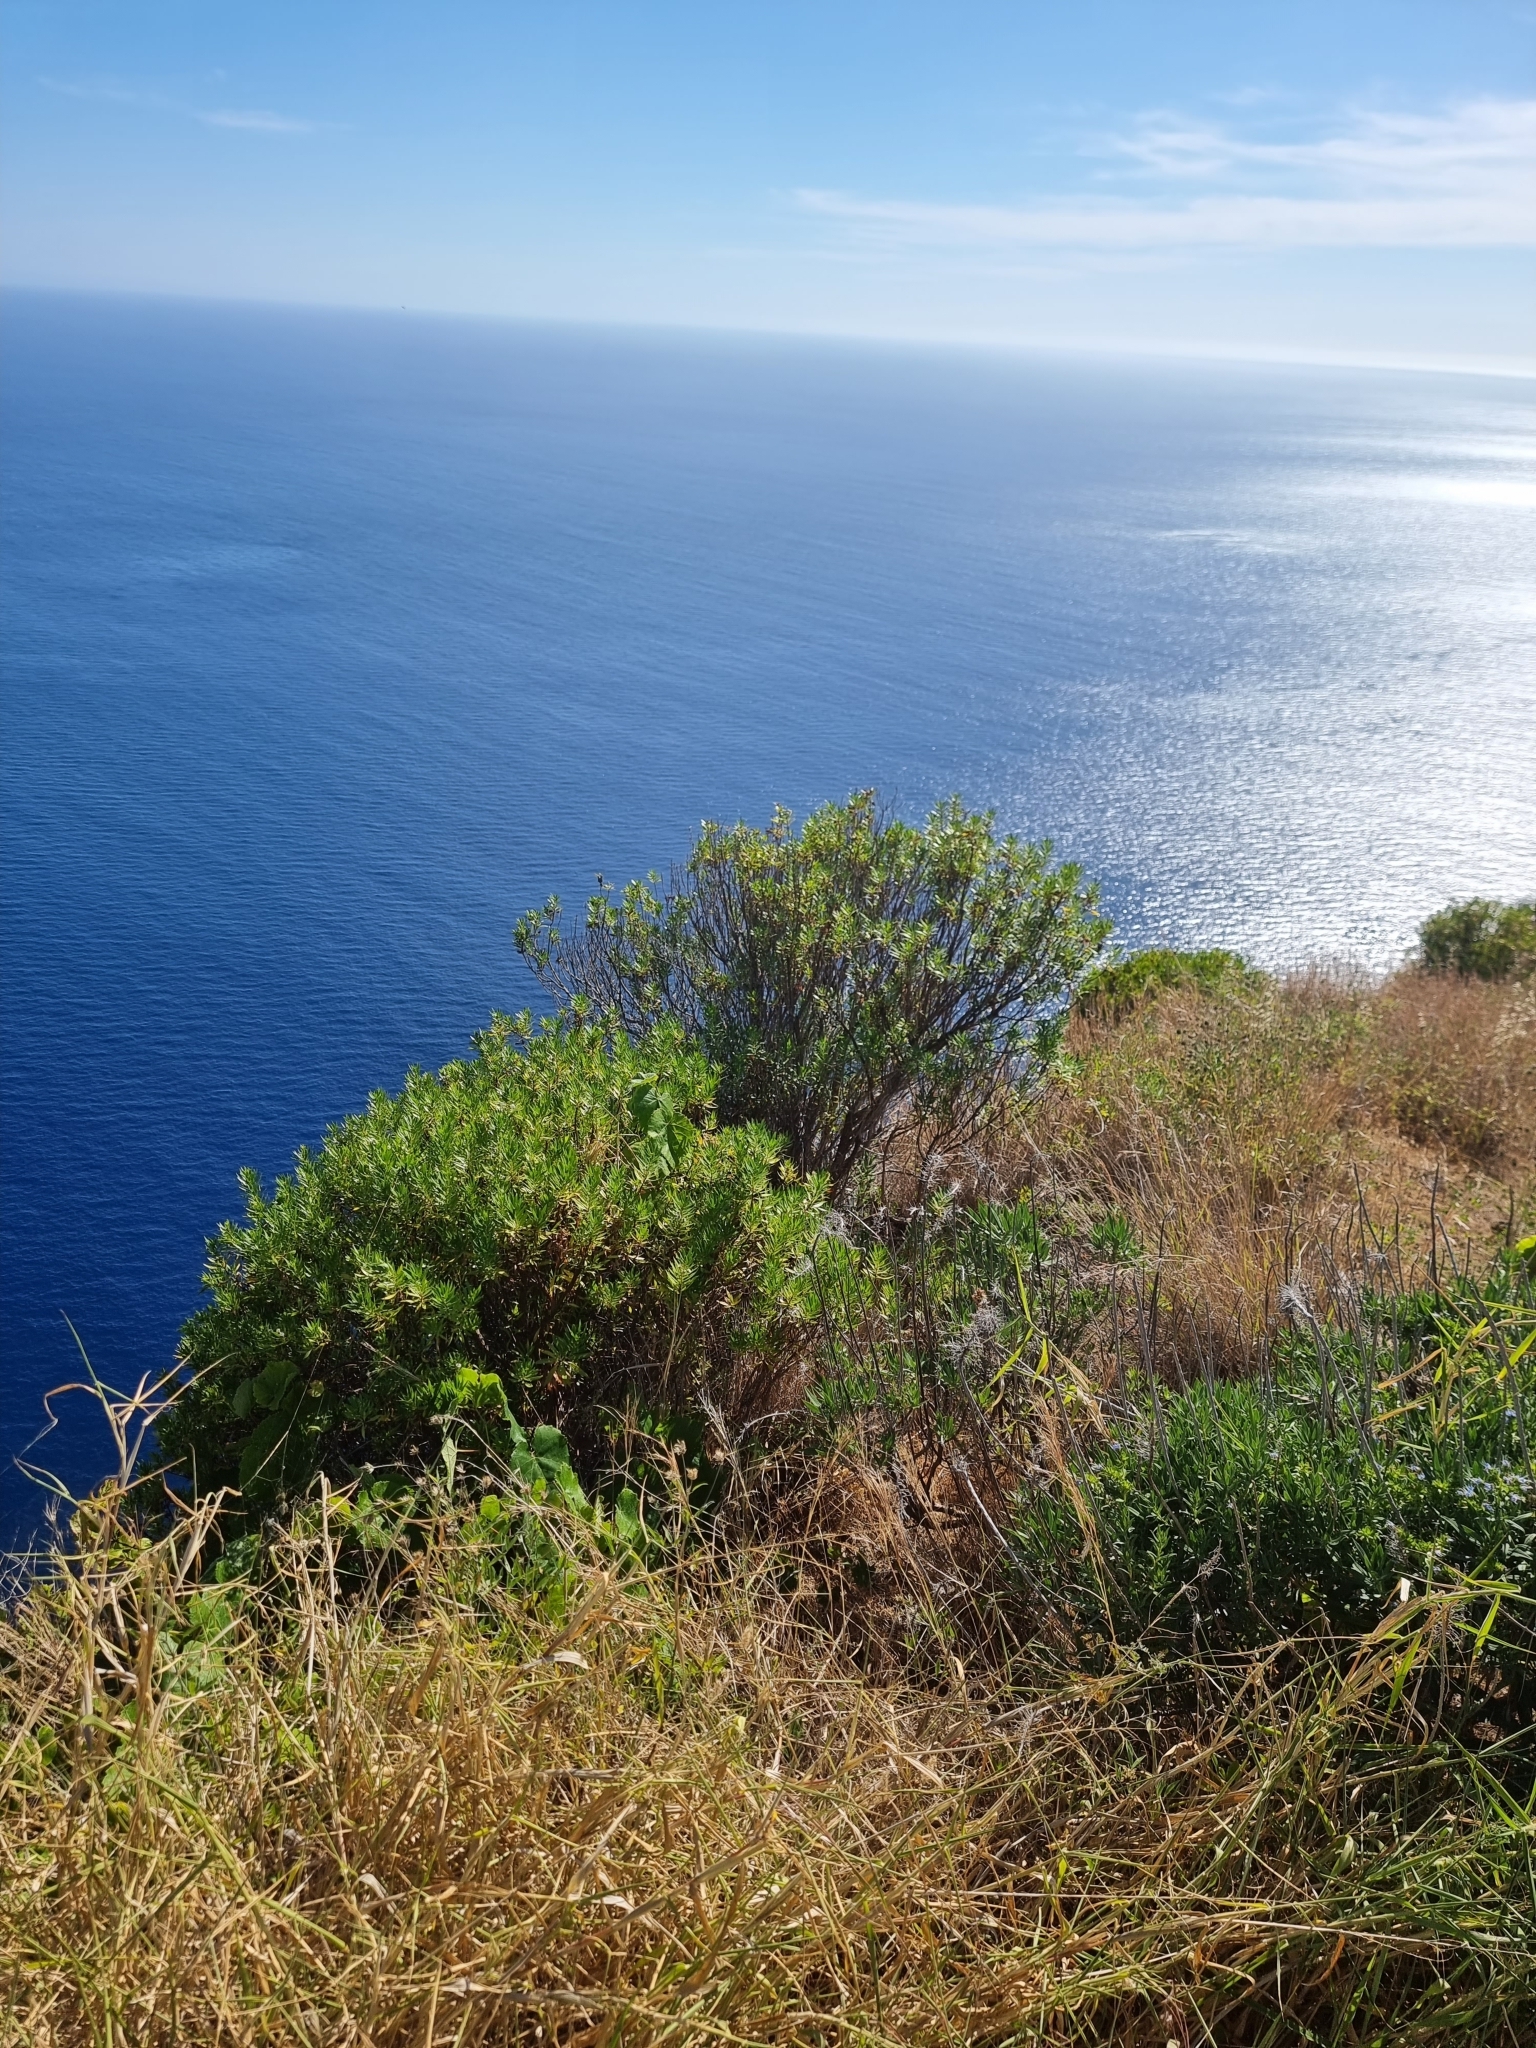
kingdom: Plantae
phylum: Tracheophyta
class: Magnoliopsida
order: Lamiales
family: Plantaginaceae
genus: Globularia
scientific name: Globularia salicina
